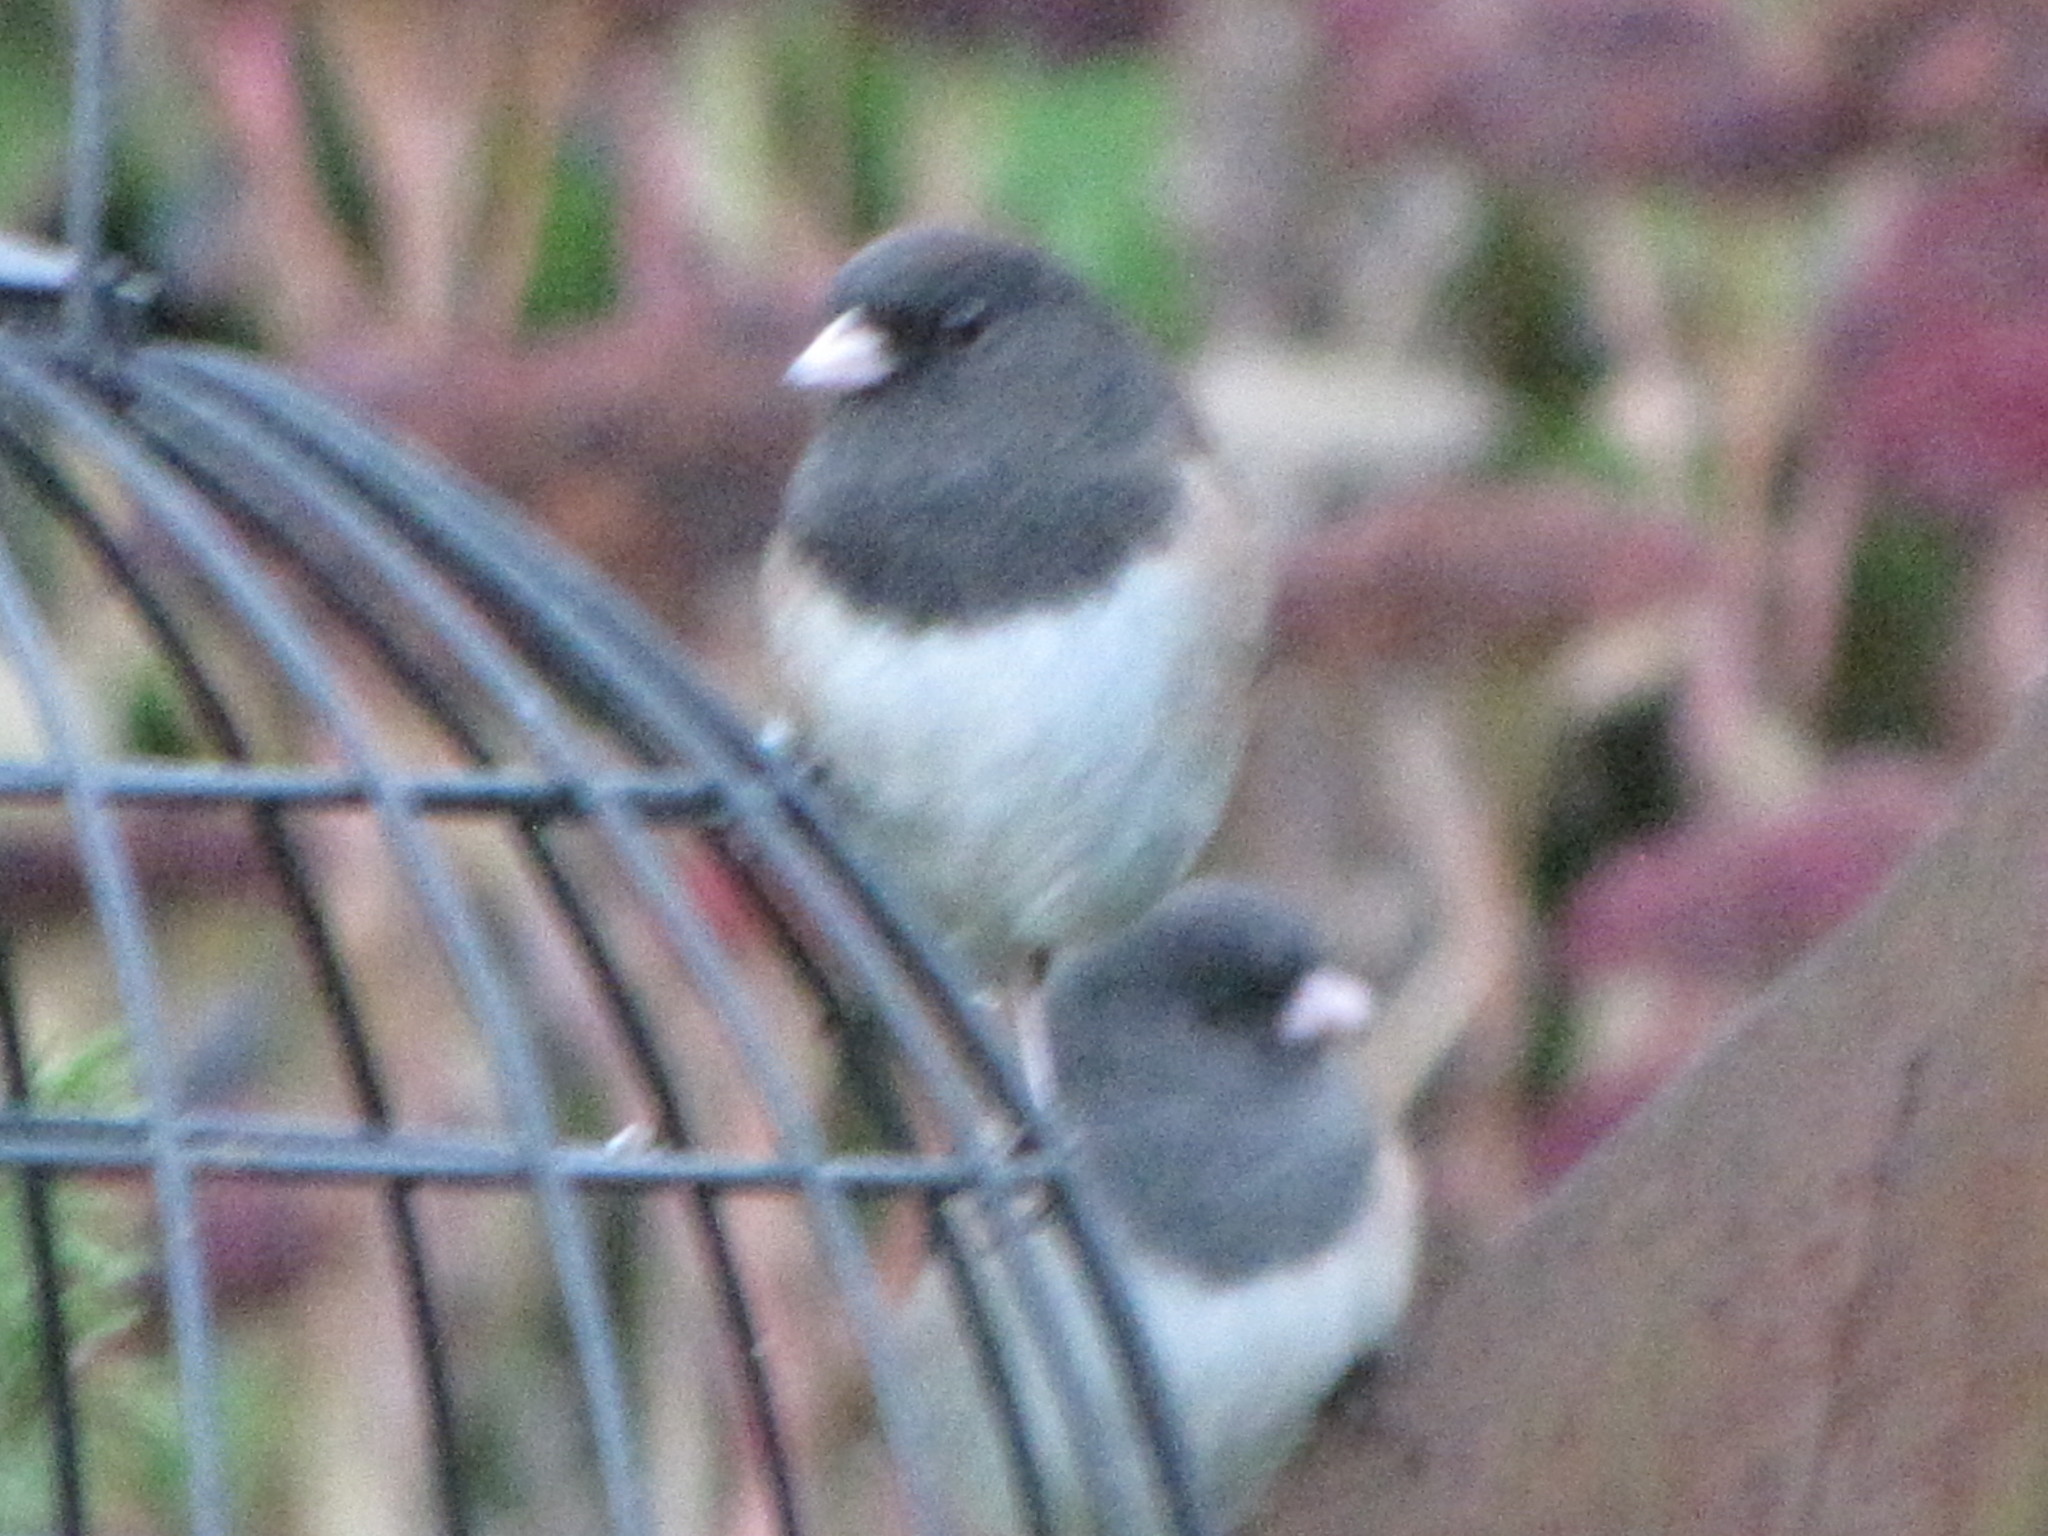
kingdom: Animalia
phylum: Chordata
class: Aves
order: Passeriformes
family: Passerellidae
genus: Junco
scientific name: Junco hyemalis
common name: Dark-eyed junco
